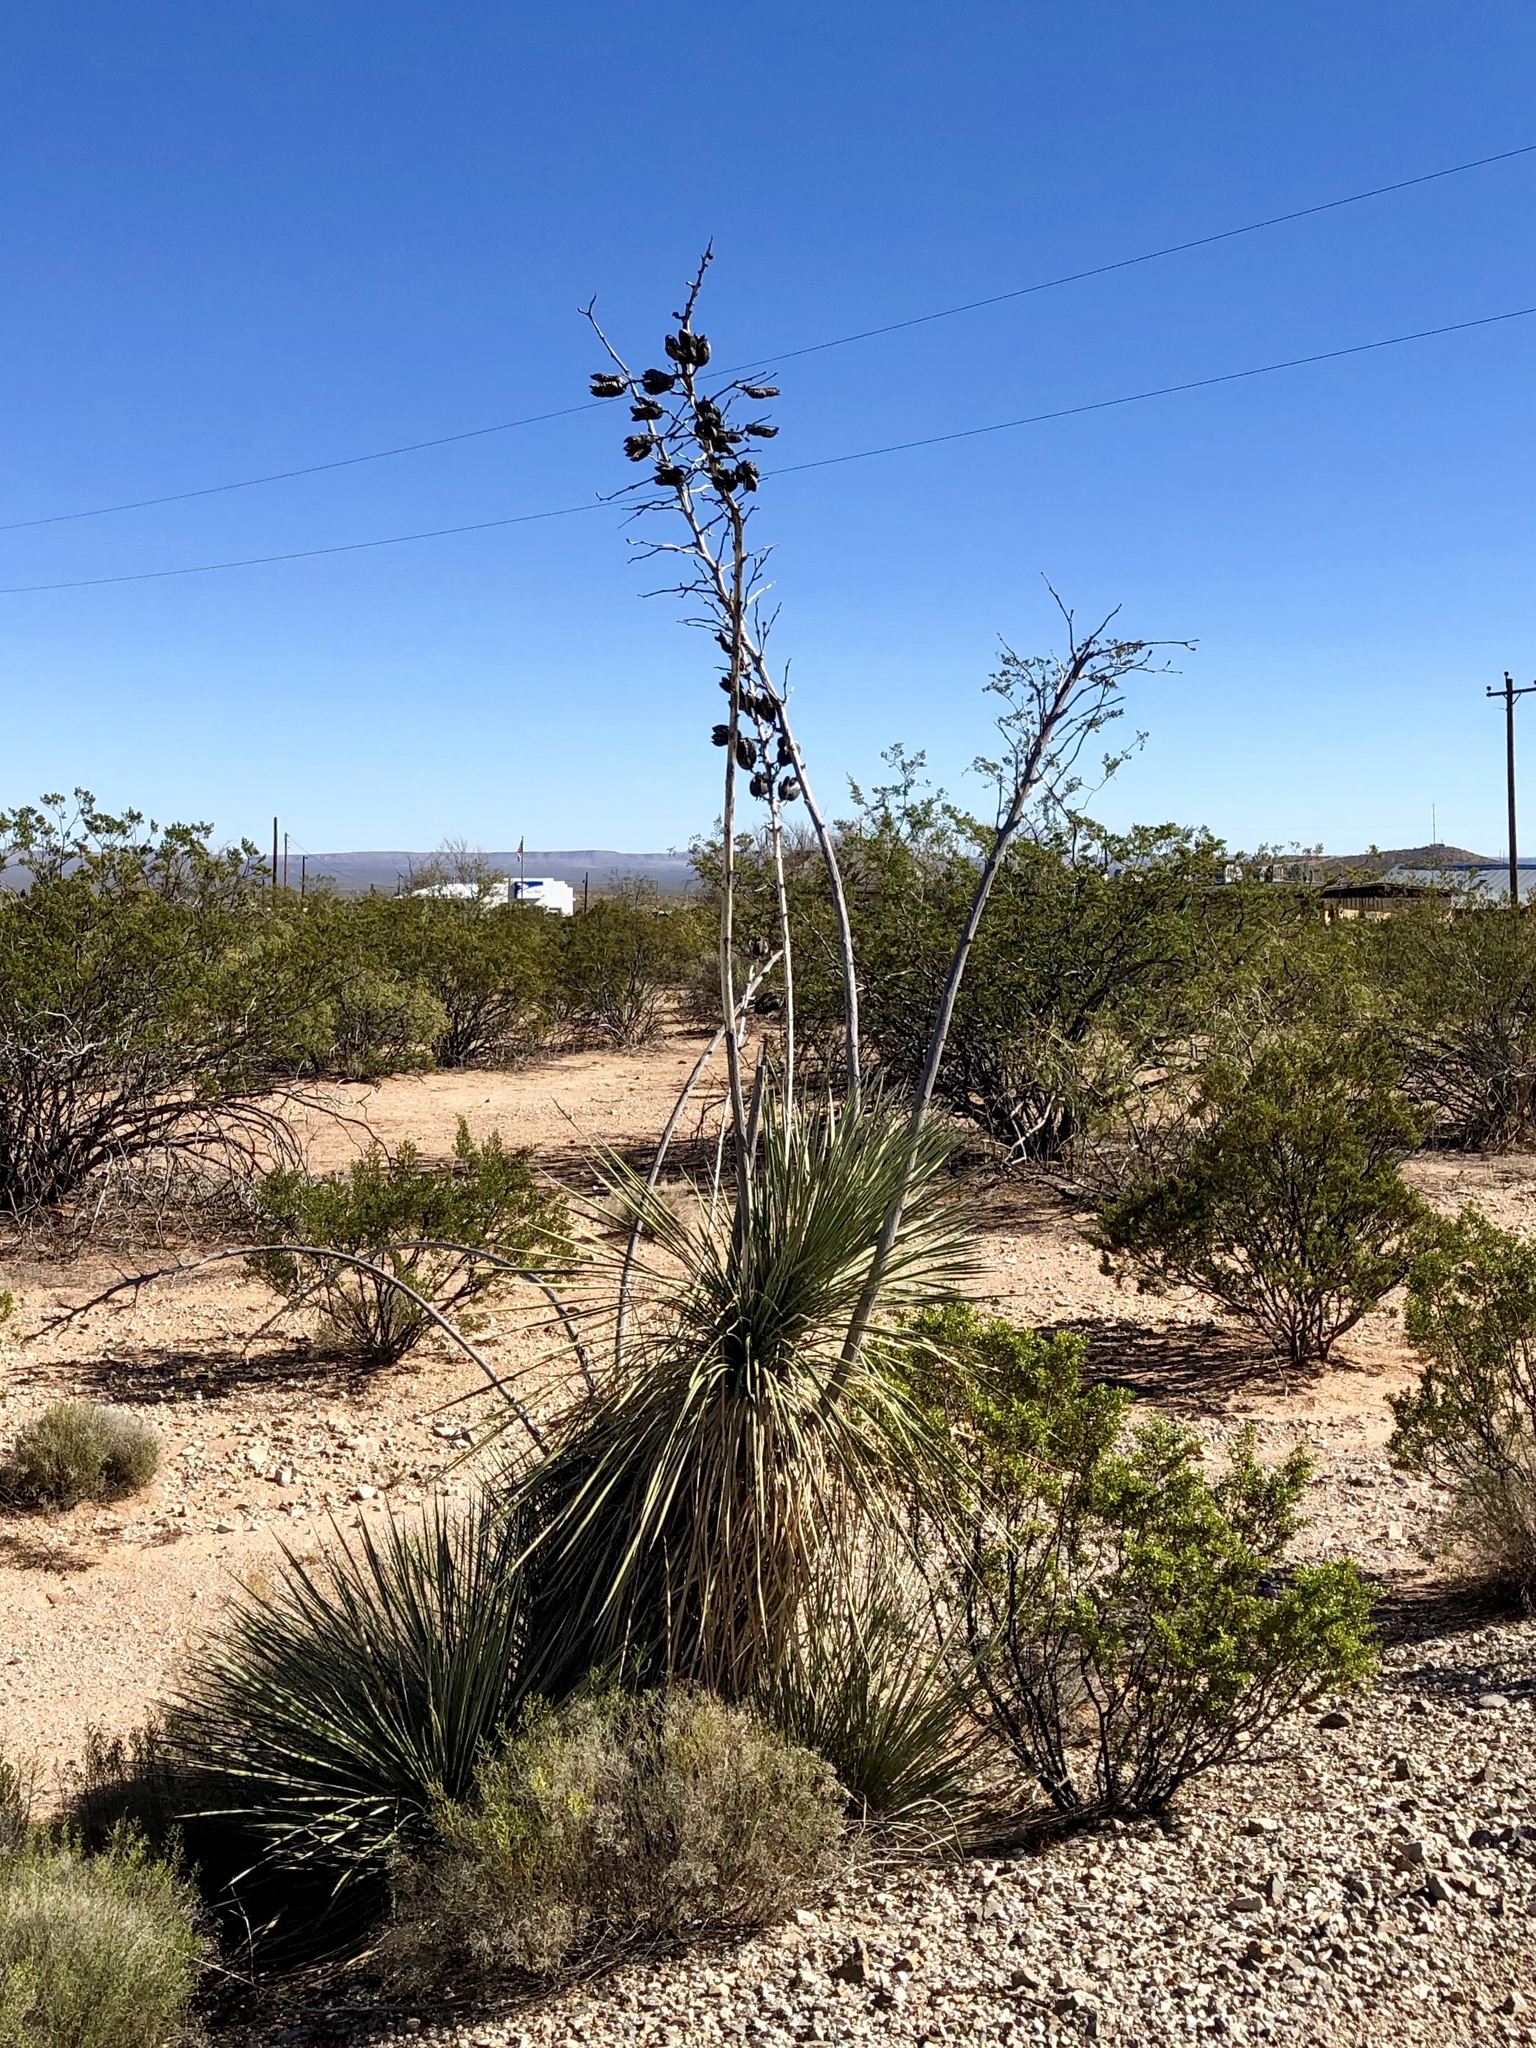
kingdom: Plantae
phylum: Tracheophyta
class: Liliopsida
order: Asparagales
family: Asparagaceae
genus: Yucca
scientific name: Yucca elata
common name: Palmella
